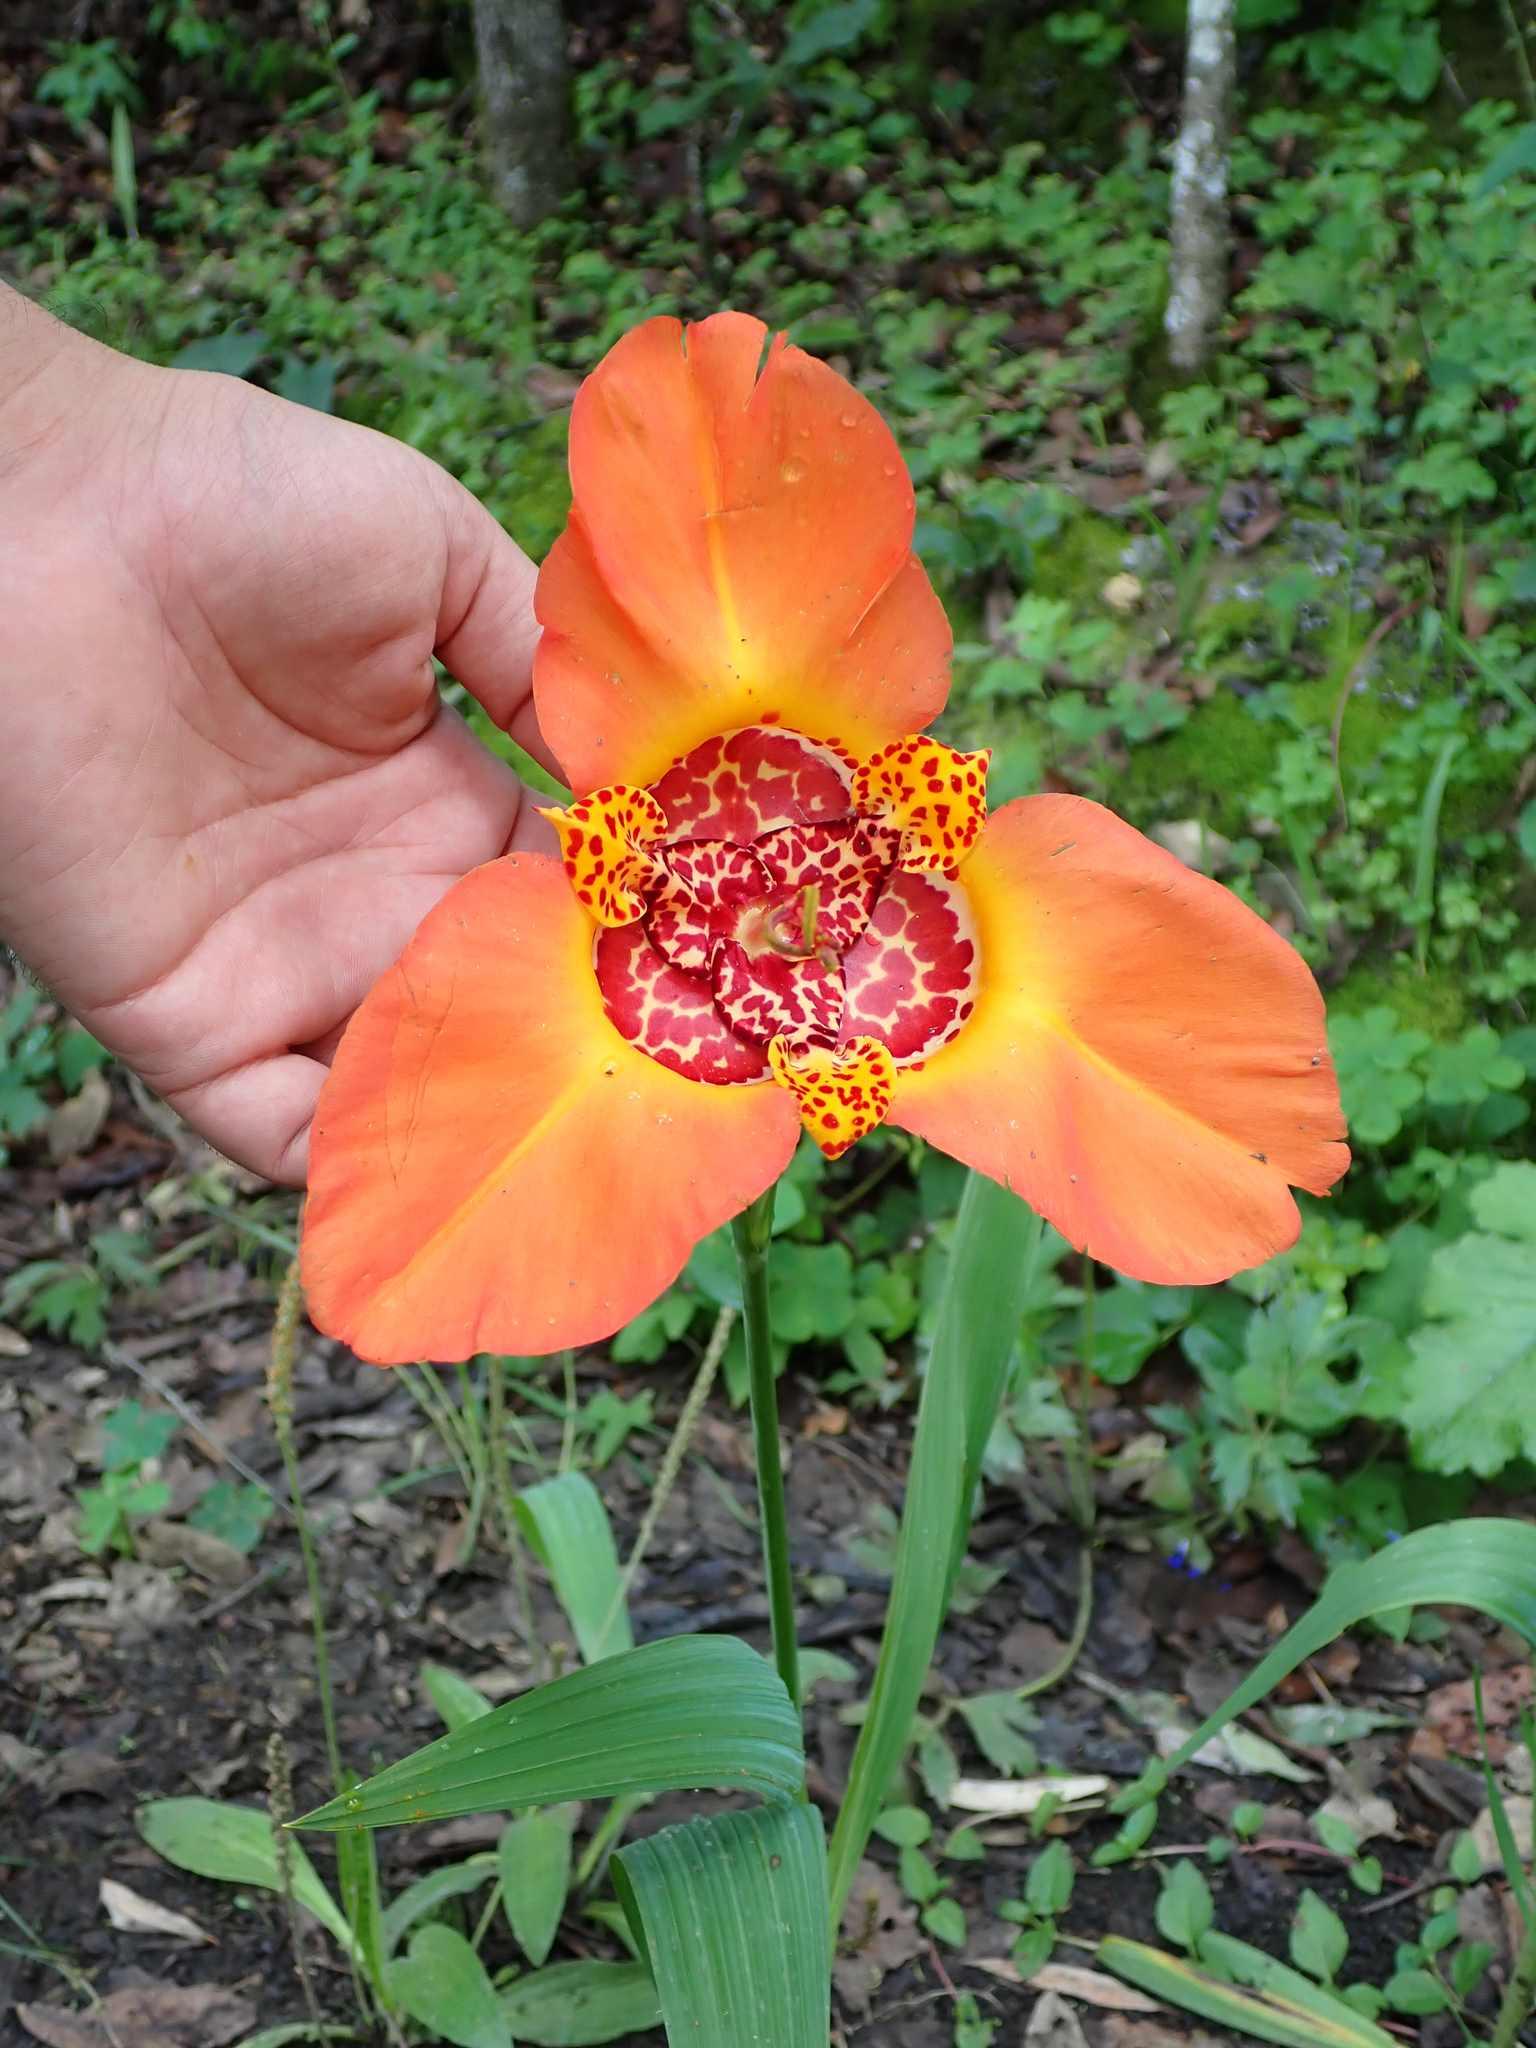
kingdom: Plantae
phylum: Tracheophyta
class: Liliopsida
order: Asparagales
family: Iridaceae
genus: Tigridia
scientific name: Tigridia pavonia
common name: Peacock-flower
